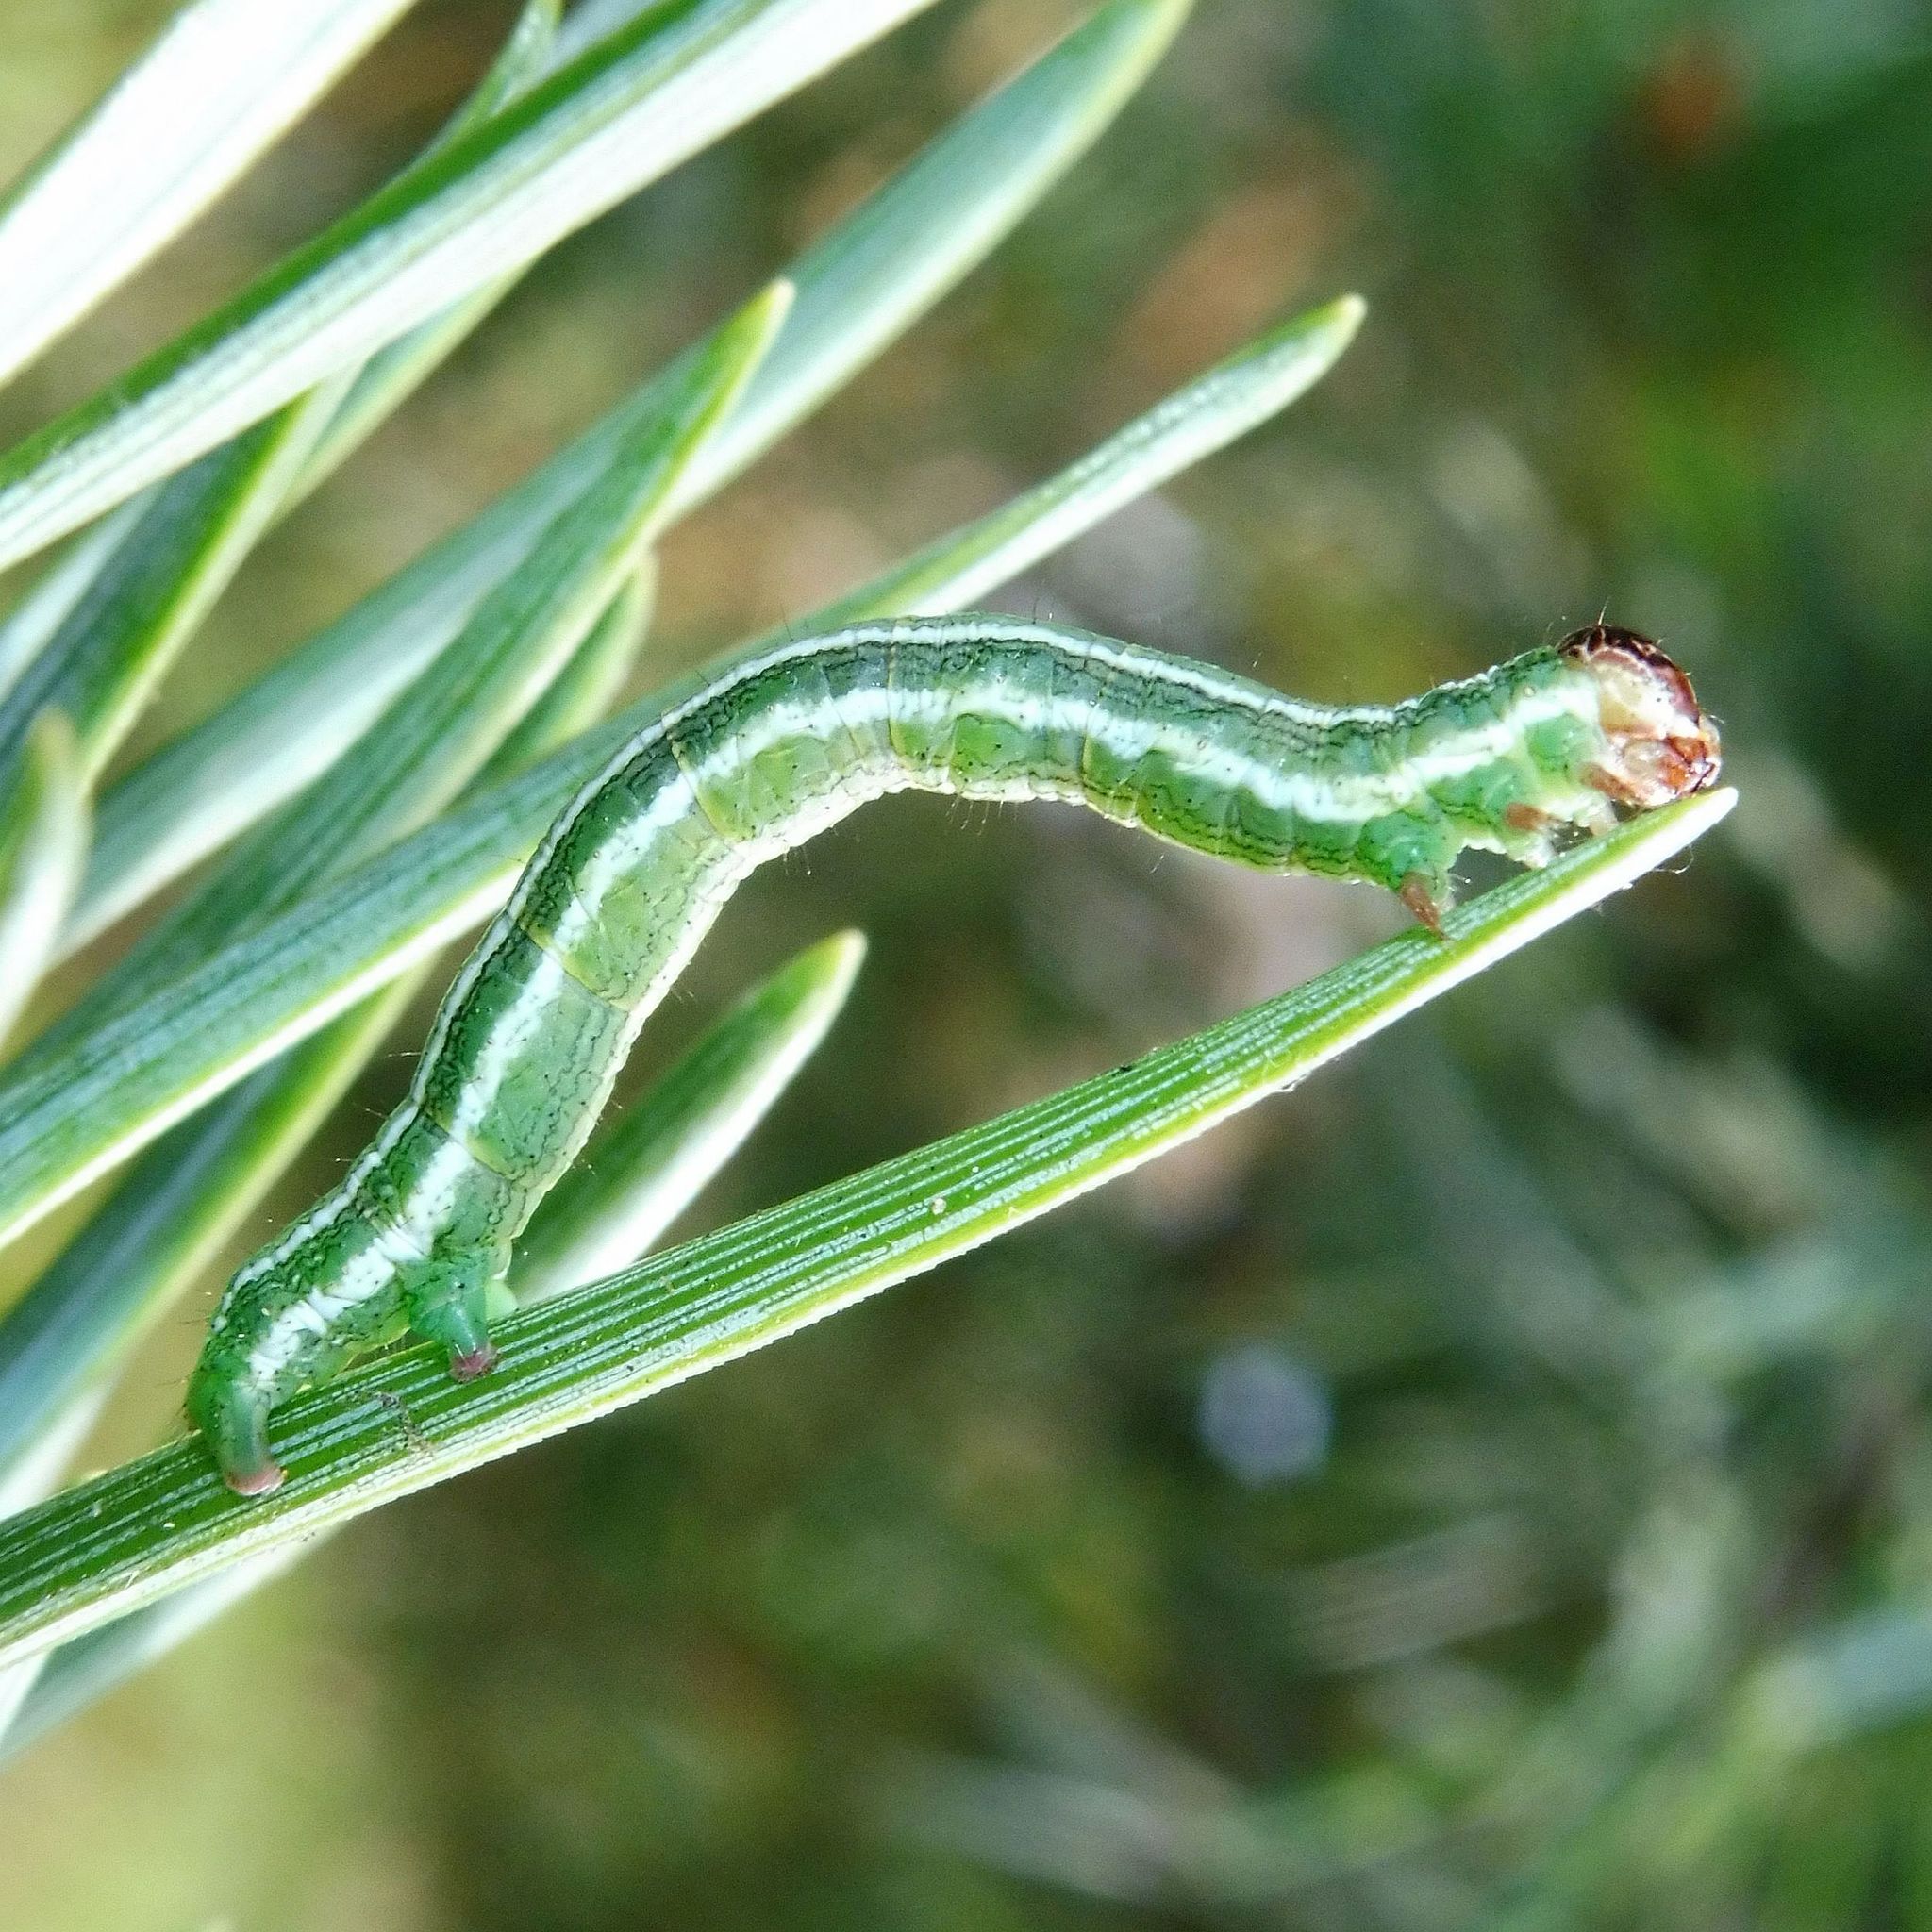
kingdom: Animalia
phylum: Arthropoda
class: Insecta
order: Lepidoptera
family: Geometridae
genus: Macaria
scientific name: Macaria liturata
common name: Tawny-barred angle
